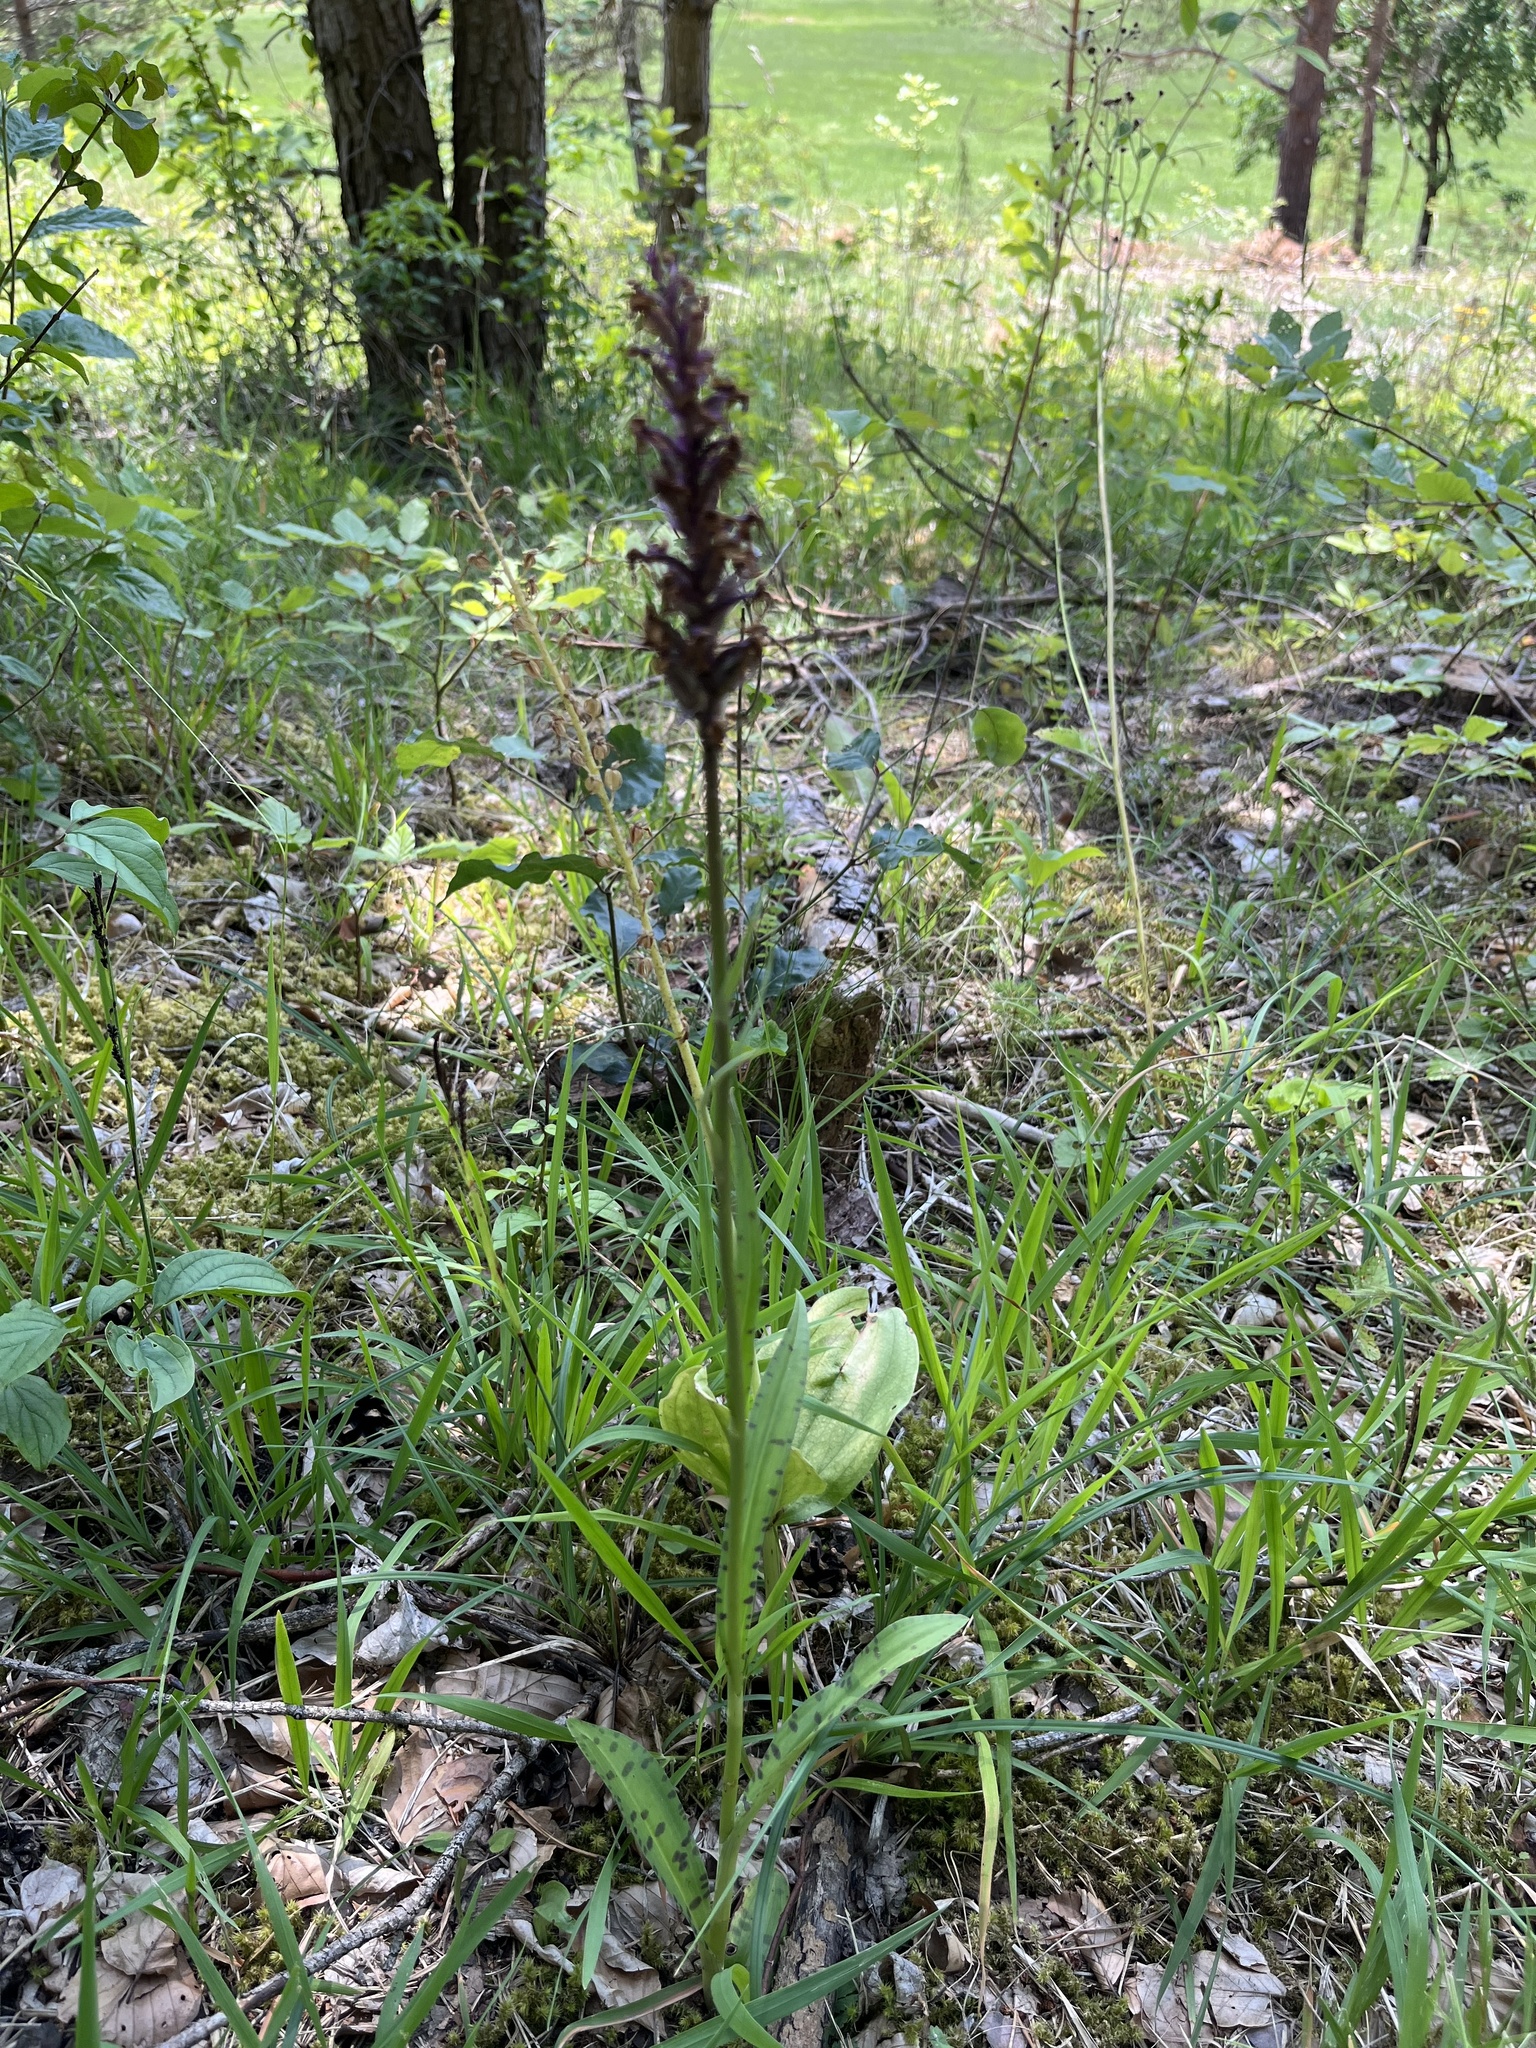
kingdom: Plantae
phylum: Tracheophyta
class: Liliopsida
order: Asparagales
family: Orchidaceae
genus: Dactylorhiza
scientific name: Dactylorhiza maculata
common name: Heath spotted-orchid
